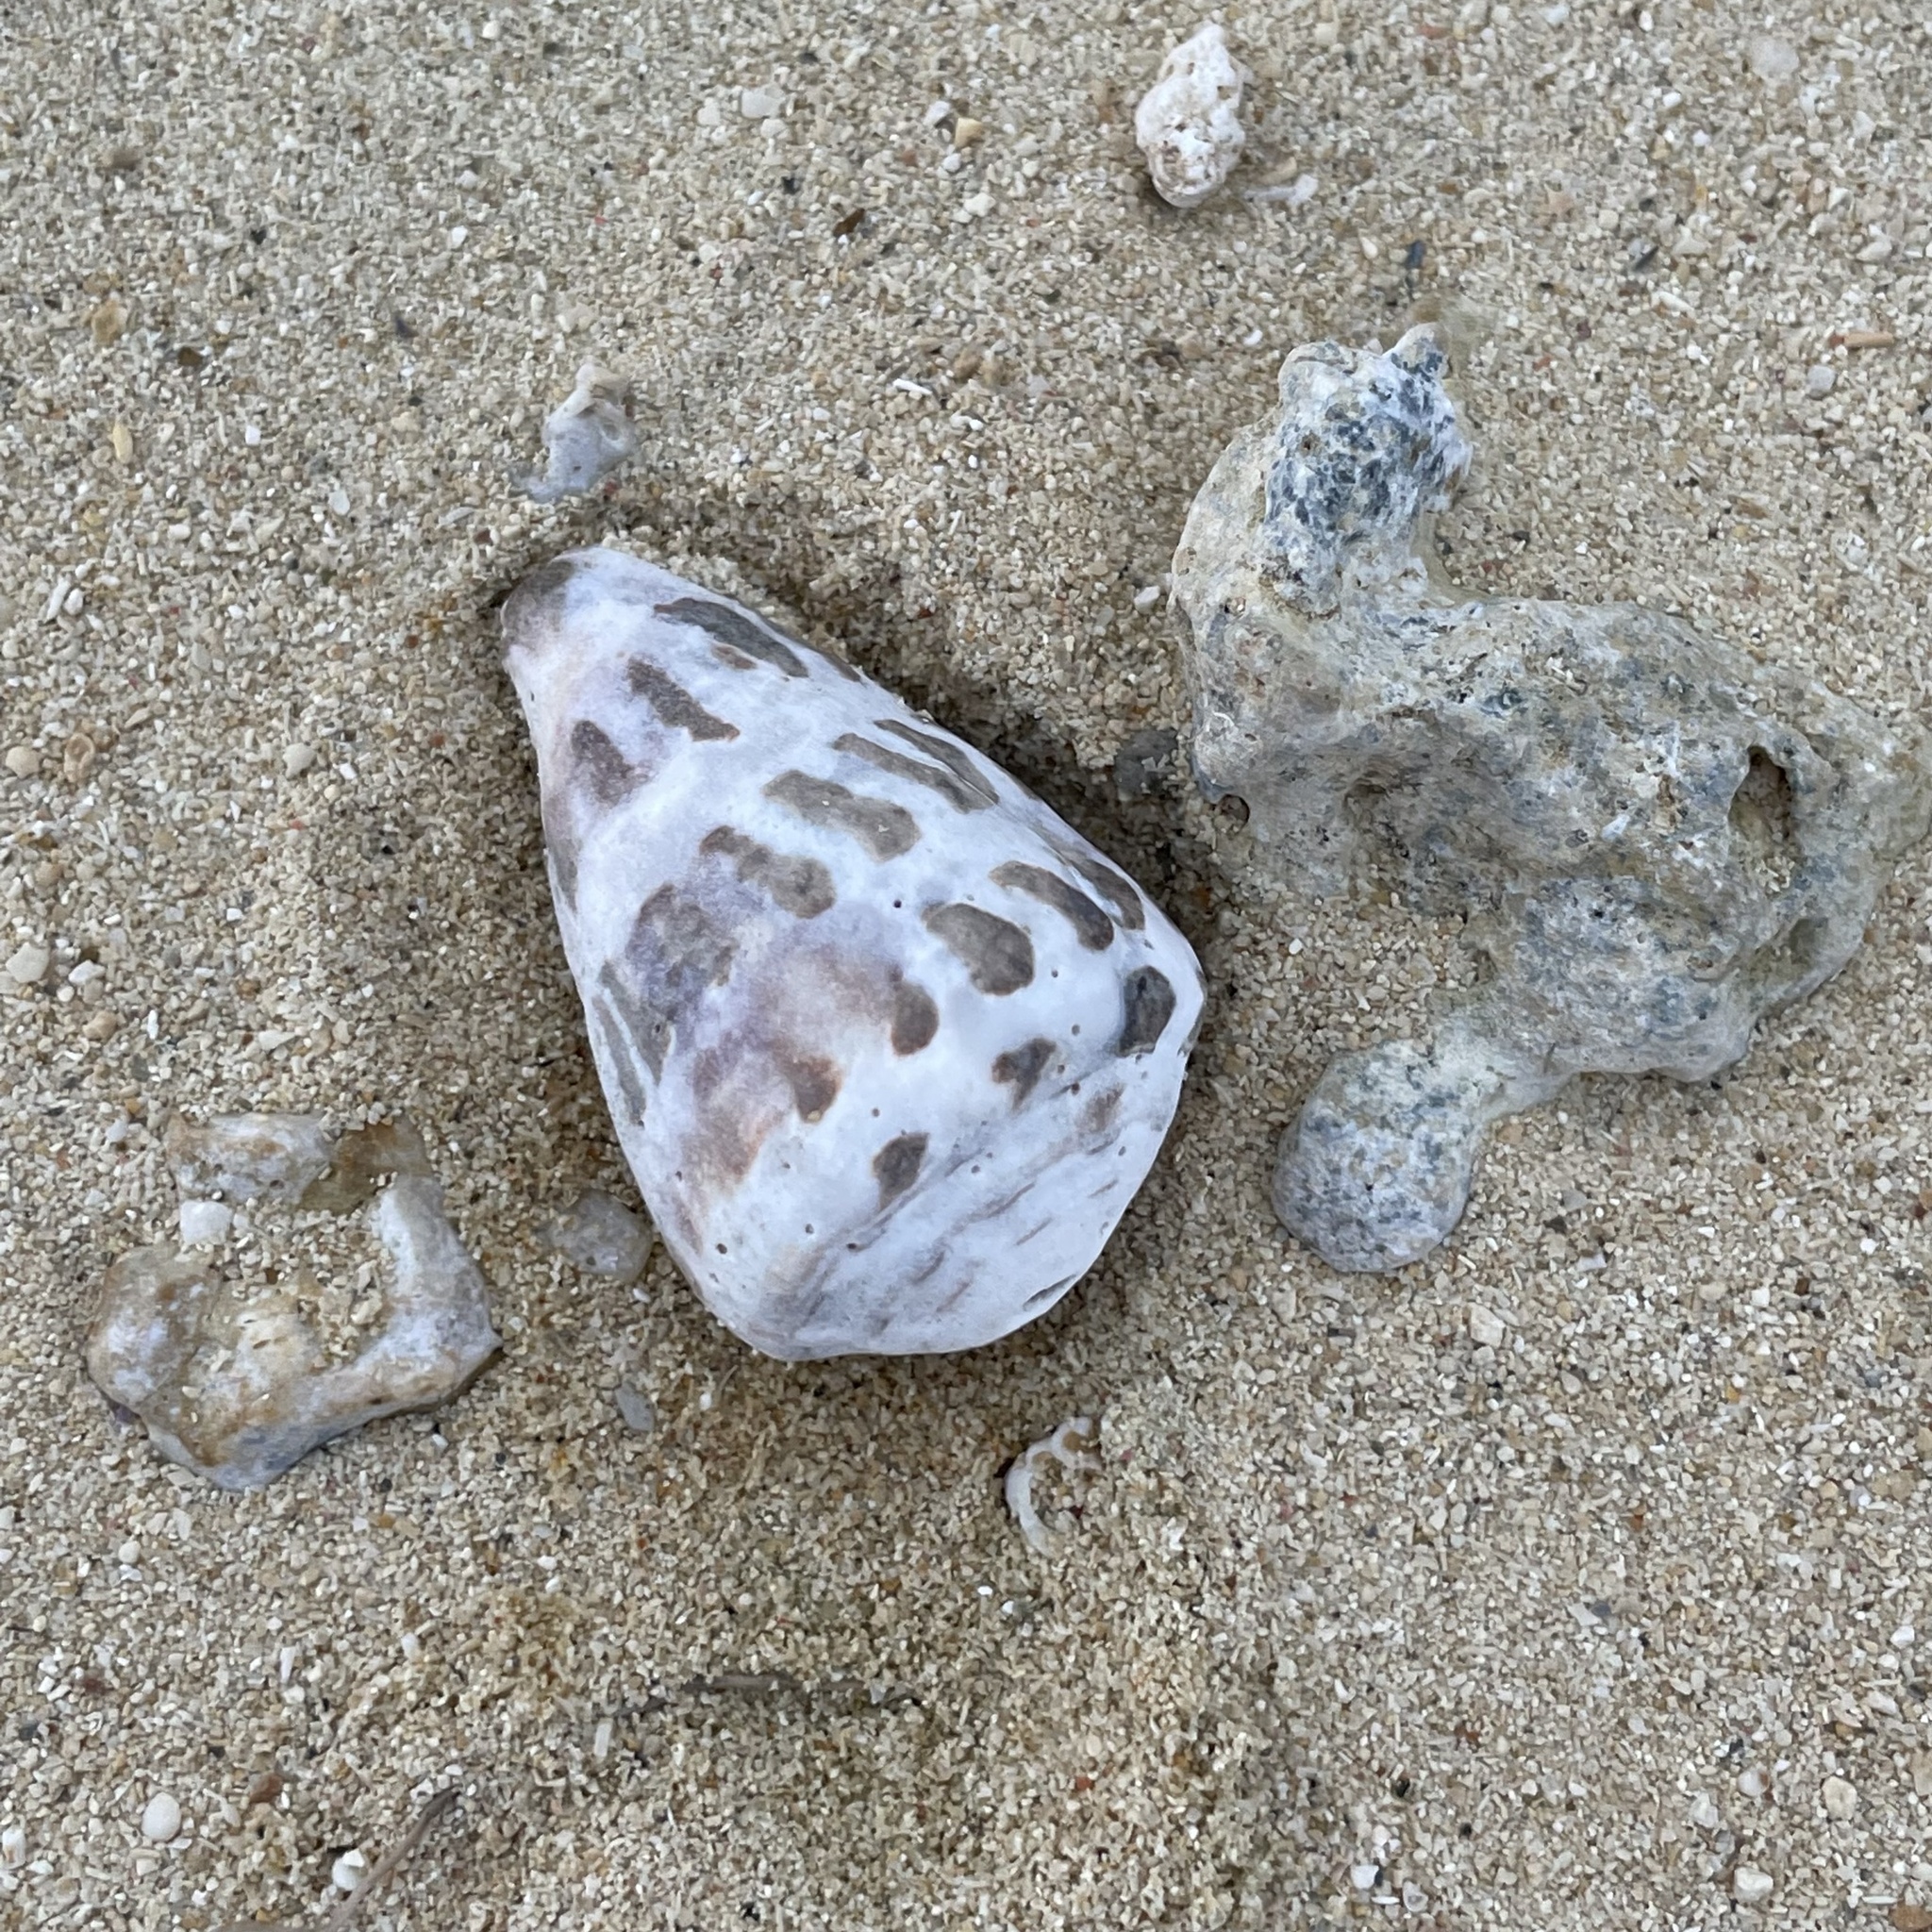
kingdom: Animalia
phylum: Mollusca
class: Gastropoda
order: Neogastropoda
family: Conidae
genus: Conus
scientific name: Conus ebraeus
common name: Hebrew cone
